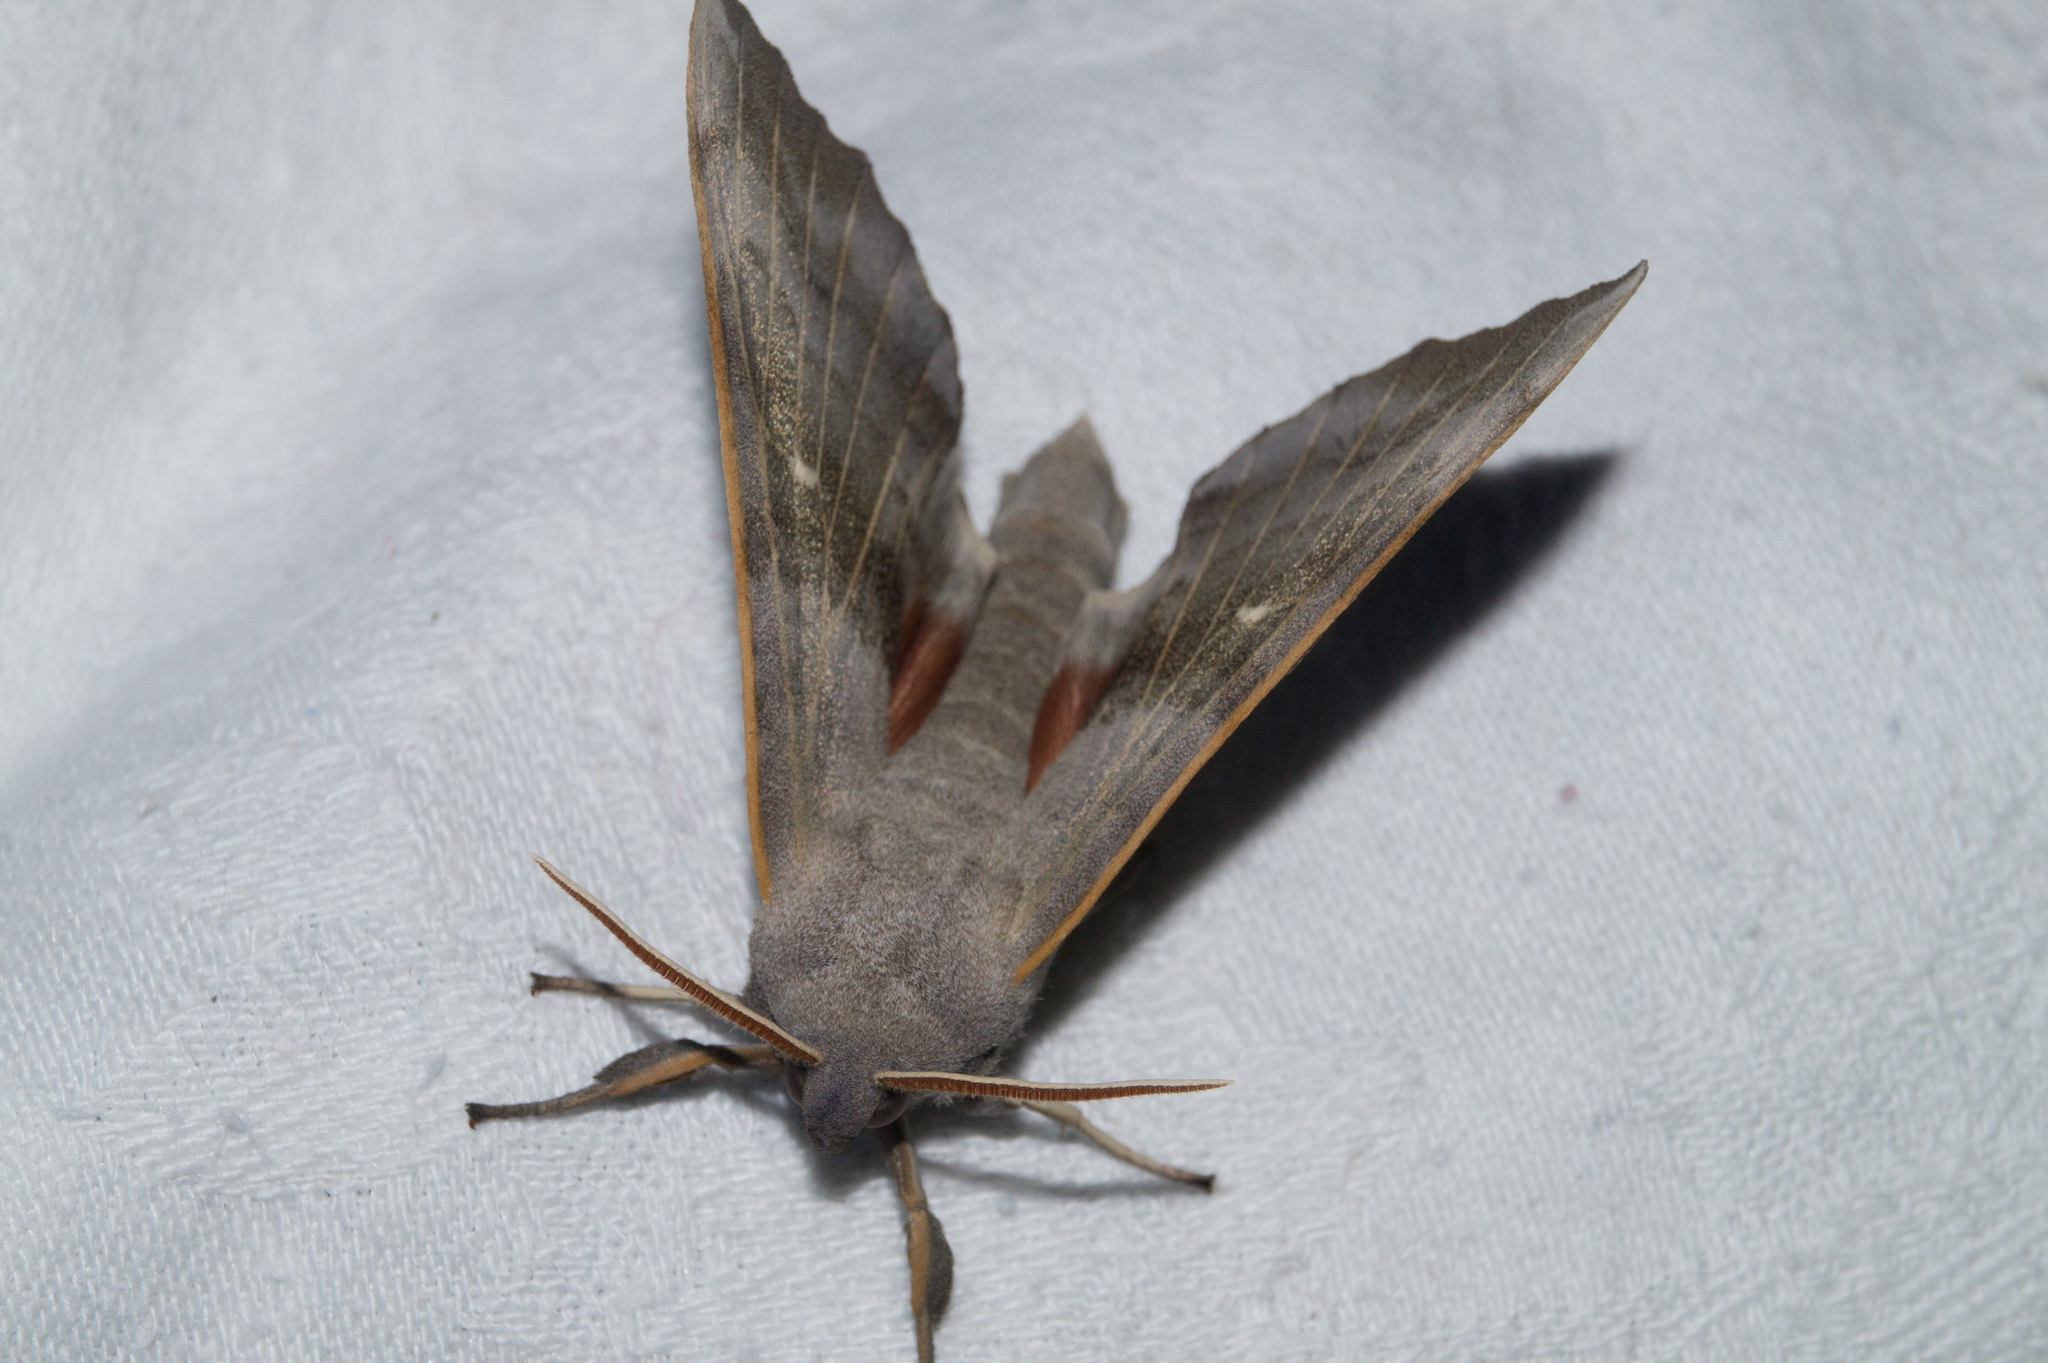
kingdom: Animalia
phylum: Arthropoda
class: Insecta
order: Lepidoptera
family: Sphingidae
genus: Laothoe
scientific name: Laothoe populi
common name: Poplar hawk-moth
